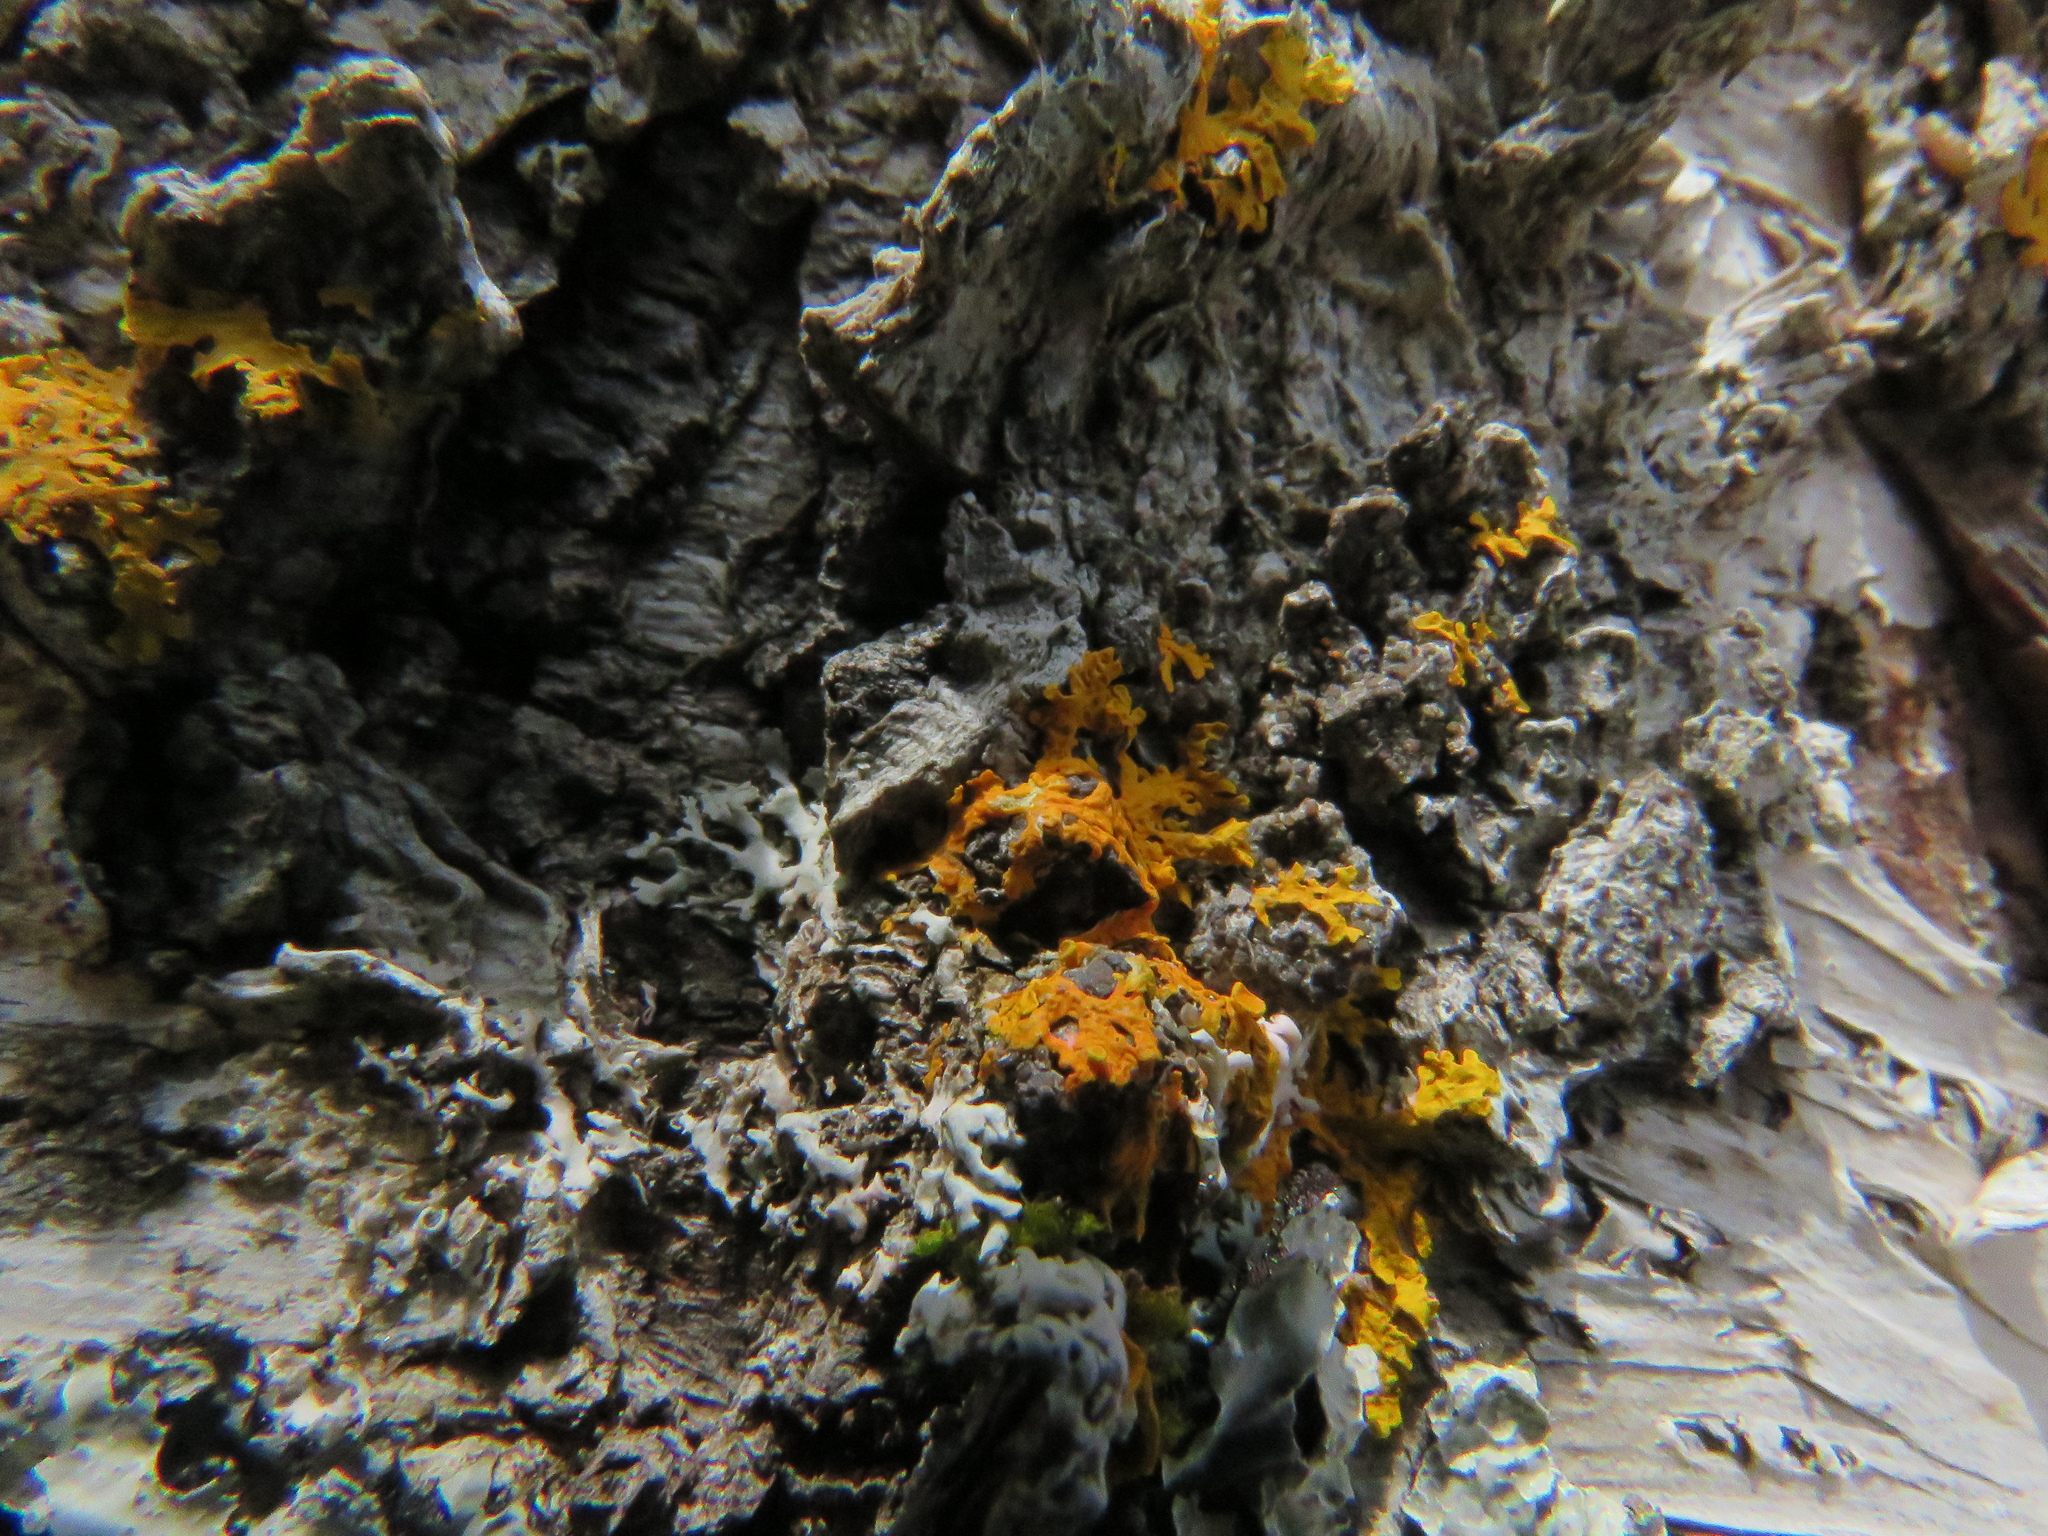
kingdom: Fungi
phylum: Ascomycota
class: Lecanoromycetes
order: Teloschistales
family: Teloschistaceae
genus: Xanthoria
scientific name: Xanthoria parietina
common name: Common orange lichen
